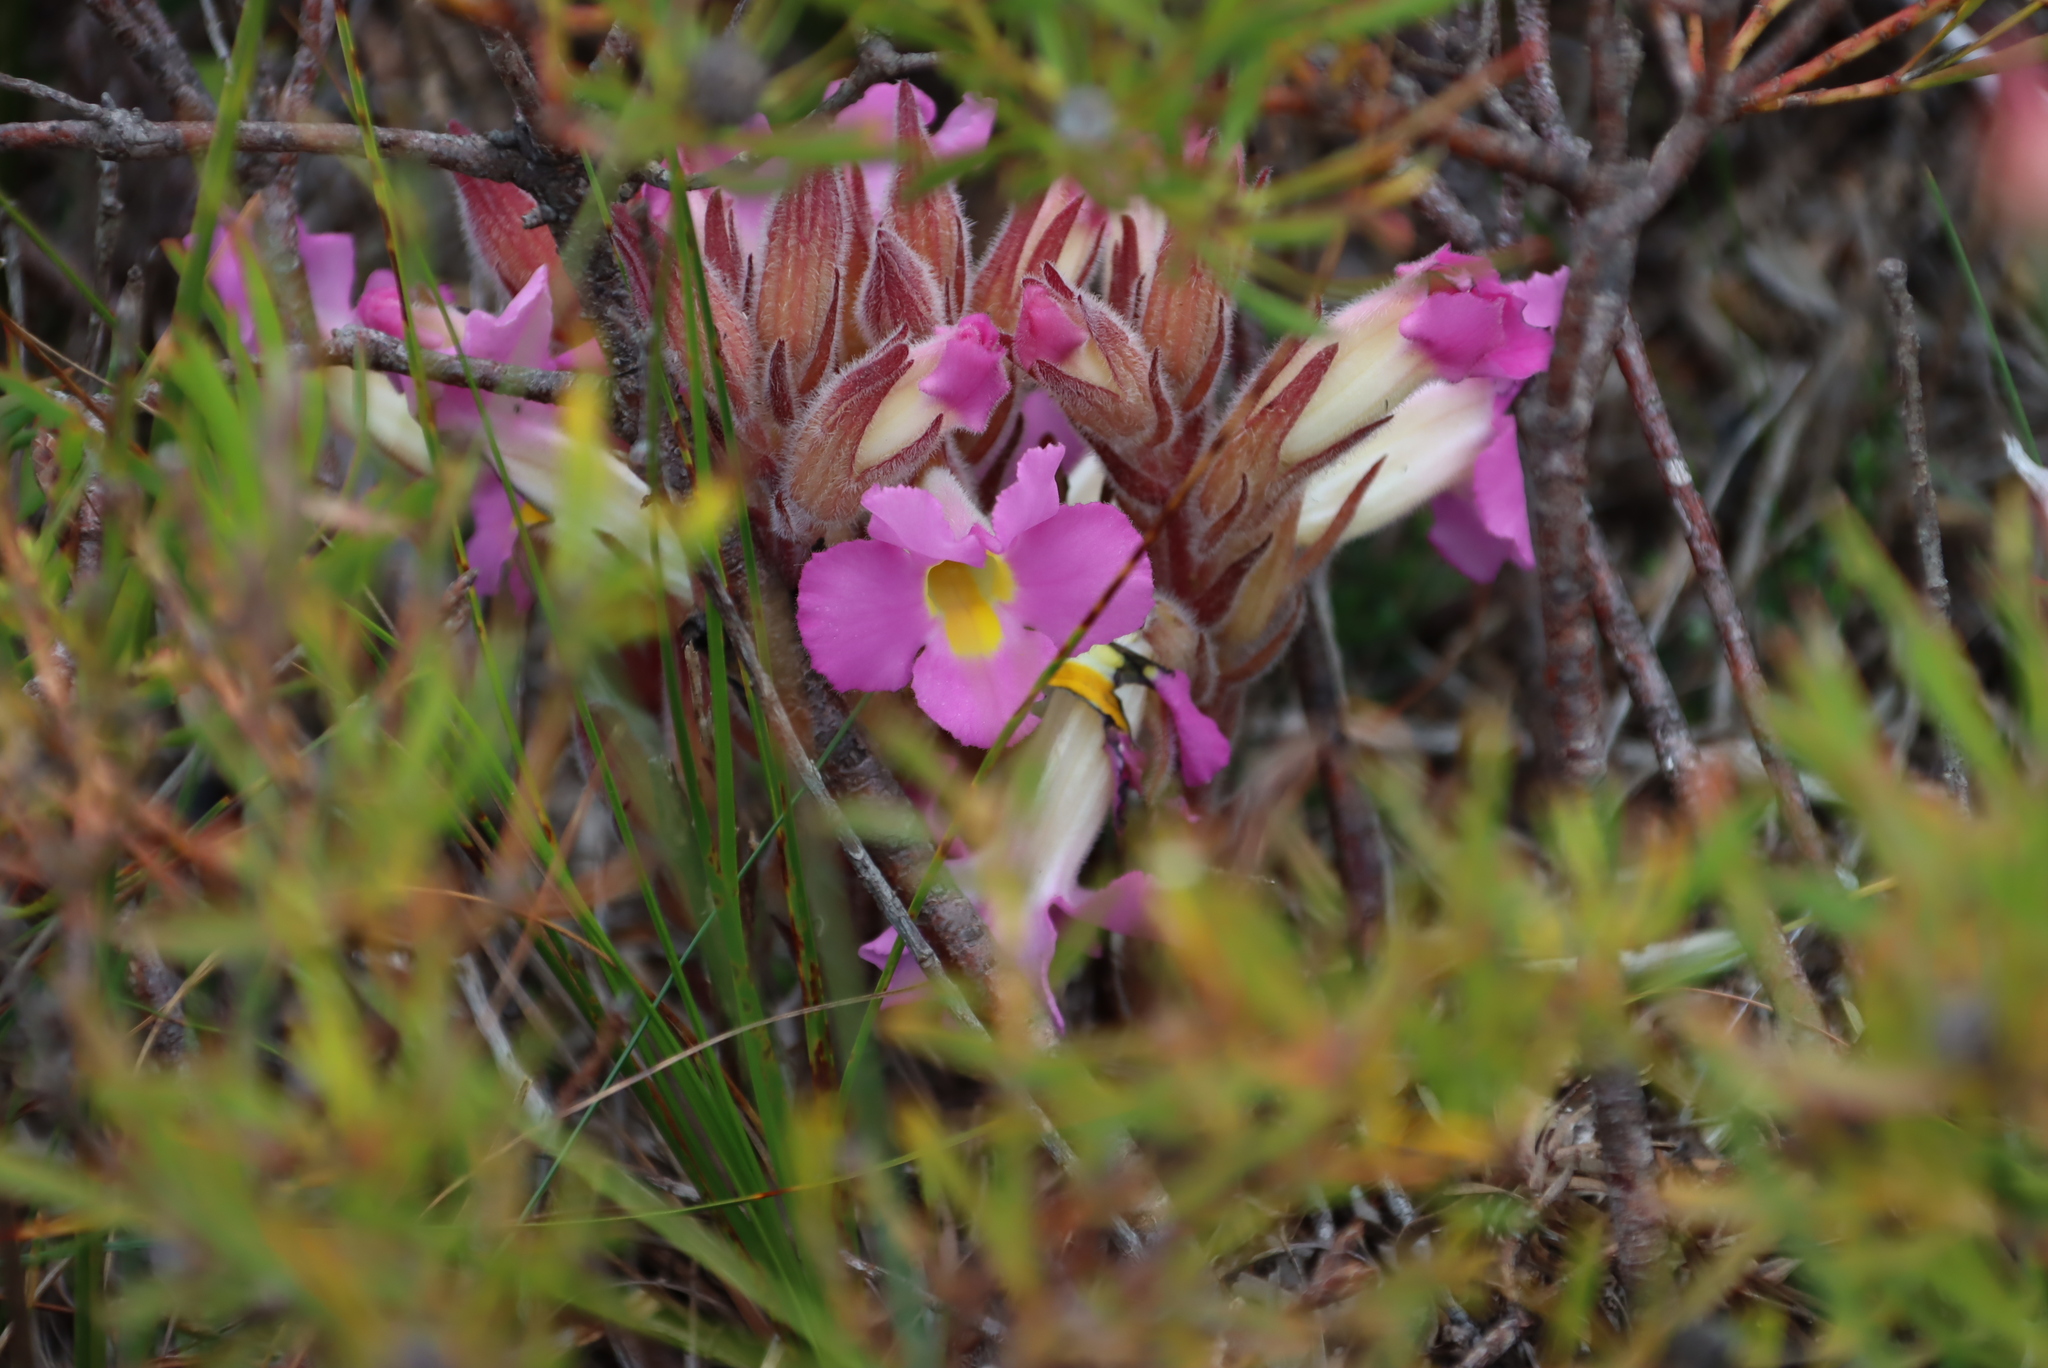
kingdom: Plantae
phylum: Tracheophyta
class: Magnoliopsida
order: Lamiales
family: Orobanchaceae
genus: Harveya
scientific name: Harveya purpurea
